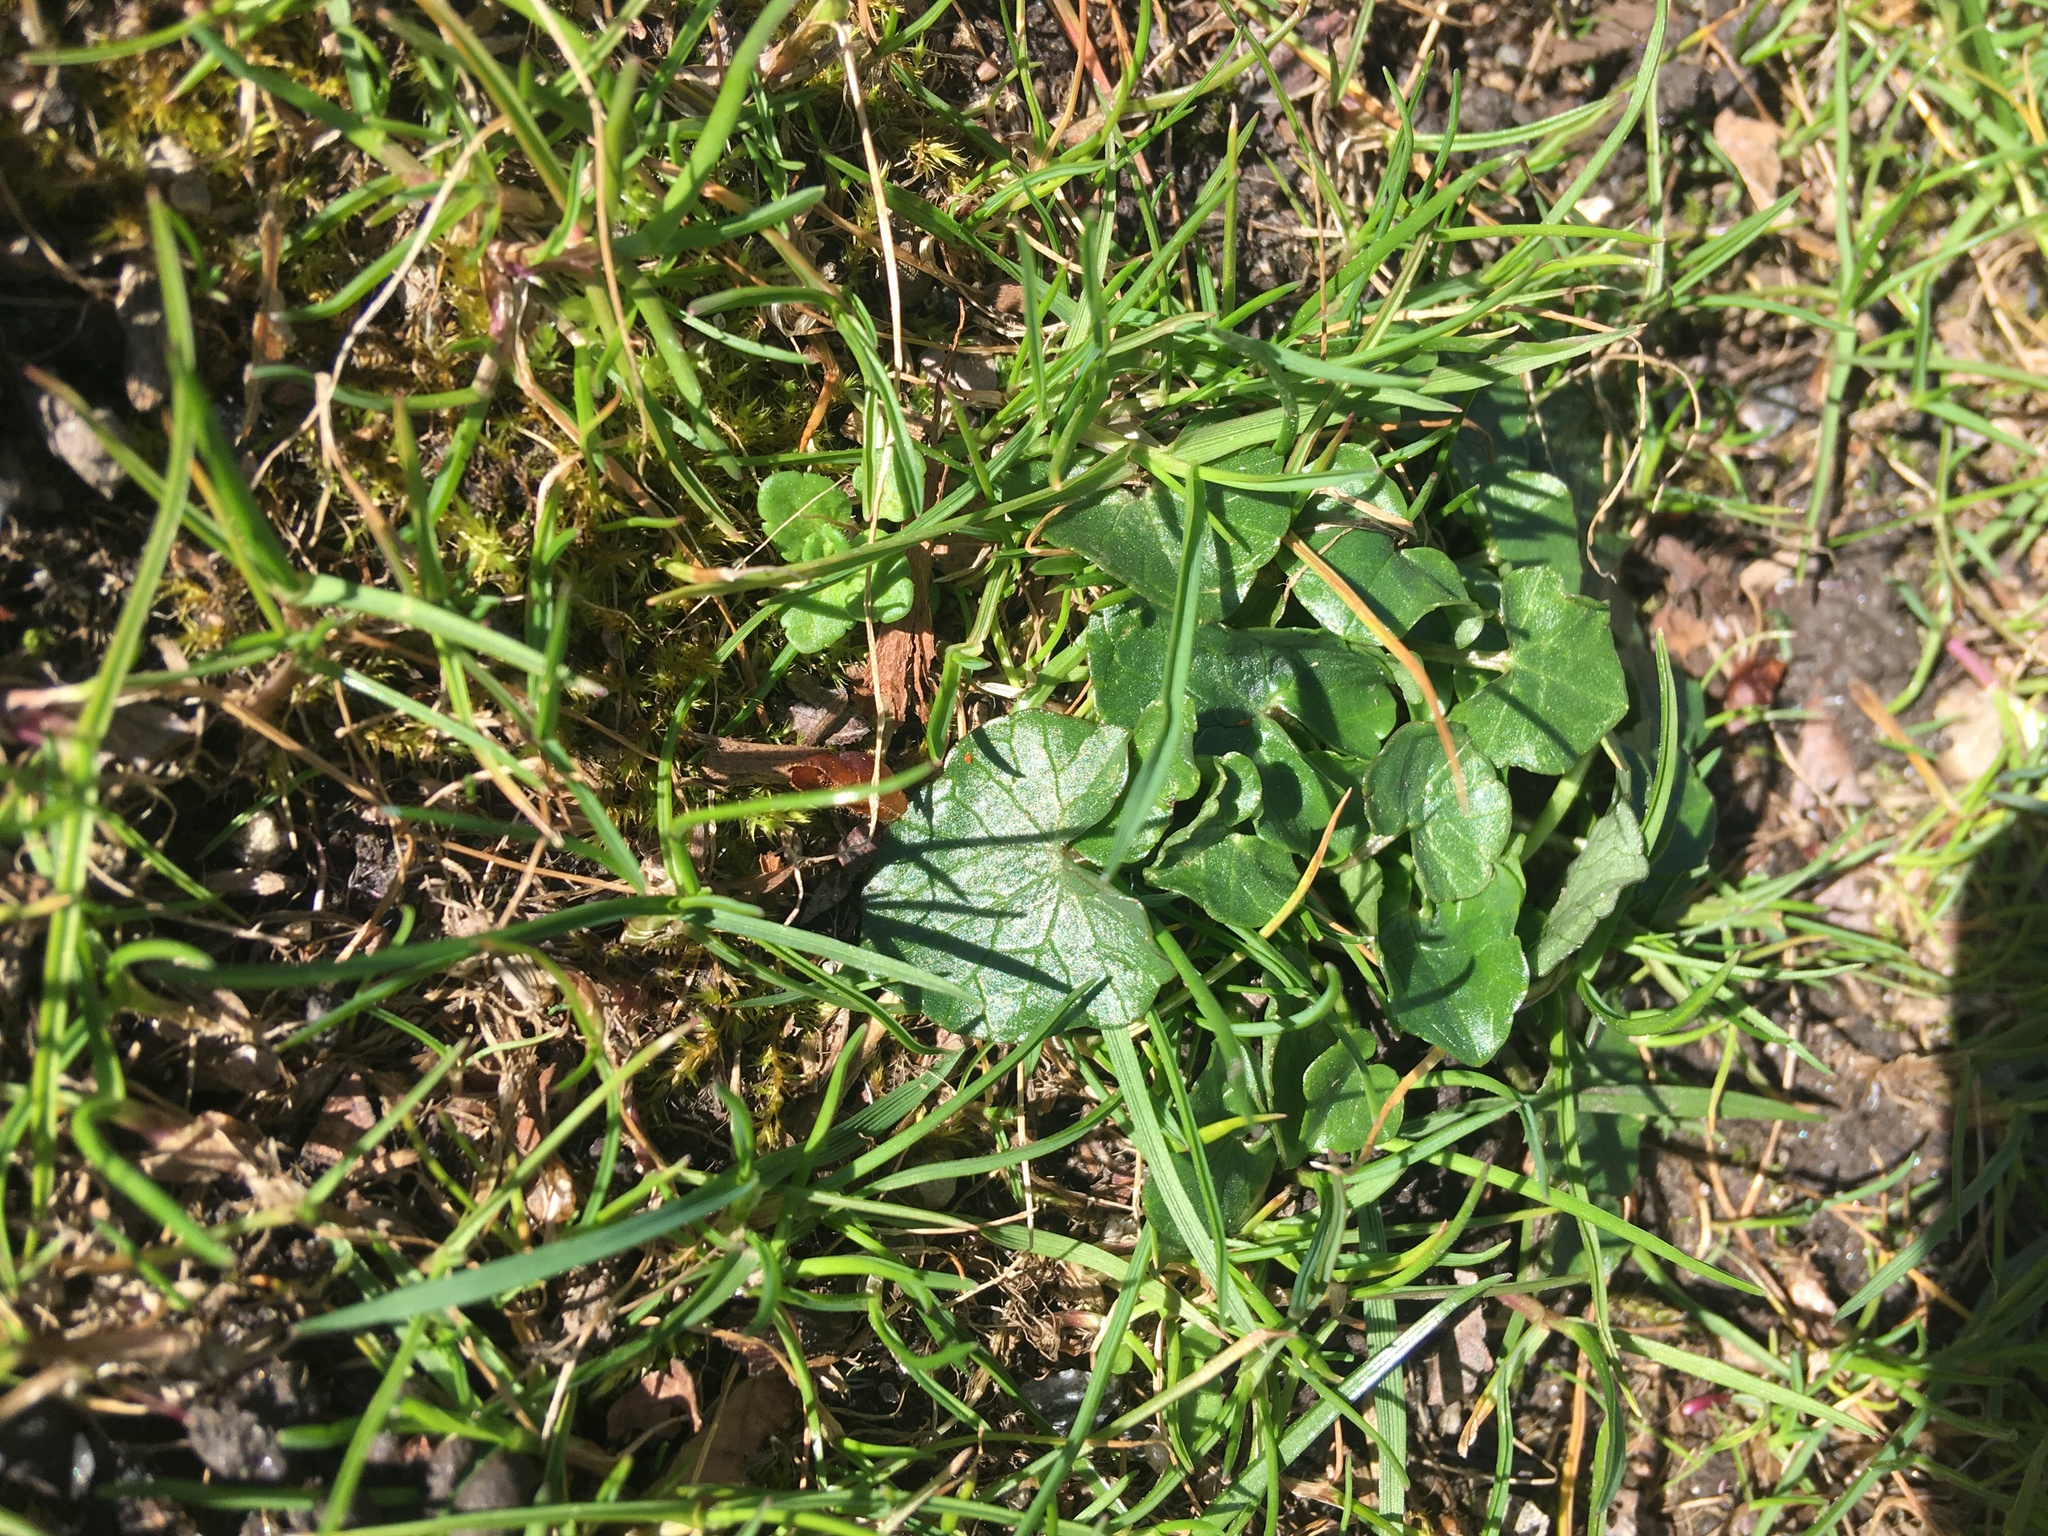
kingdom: Plantae
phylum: Tracheophyta
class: Magnoliopsida
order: Ranunculales
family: Ranunculaceae
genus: Ficaria
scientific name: Ficaria verna
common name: Lesser celandine
